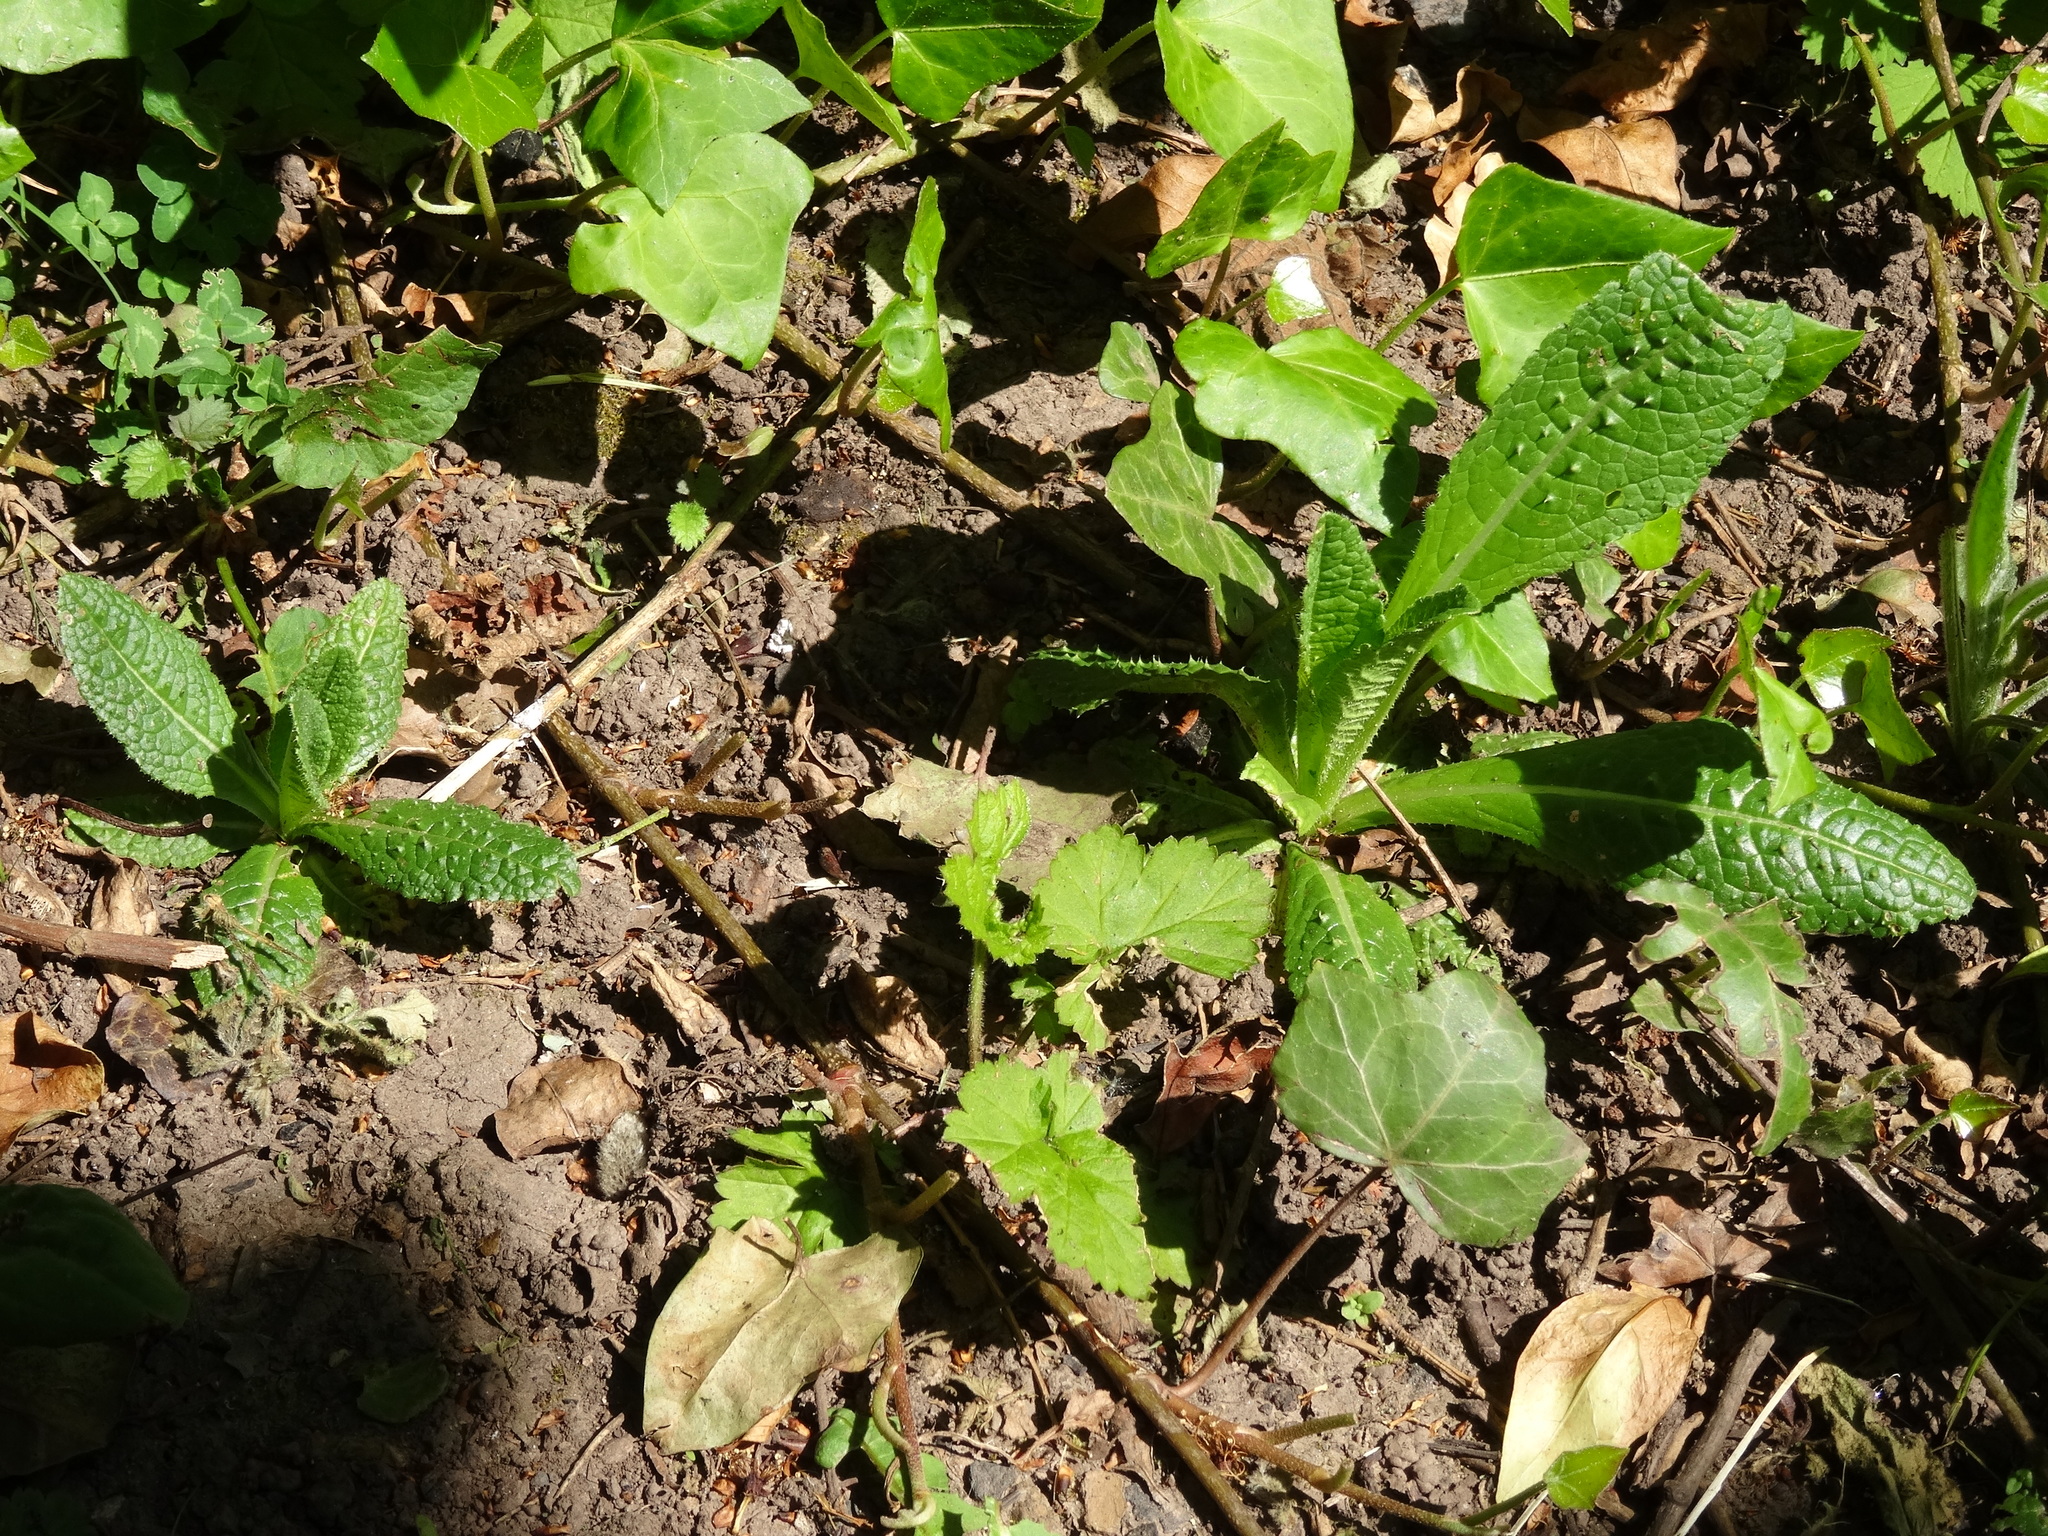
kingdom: Plantae
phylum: Tracheophyta
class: Magnoliopsida
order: Dipsacales
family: Caprifoliaceae
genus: Dipsacus
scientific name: Dipsacus fullonum
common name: Teasel
